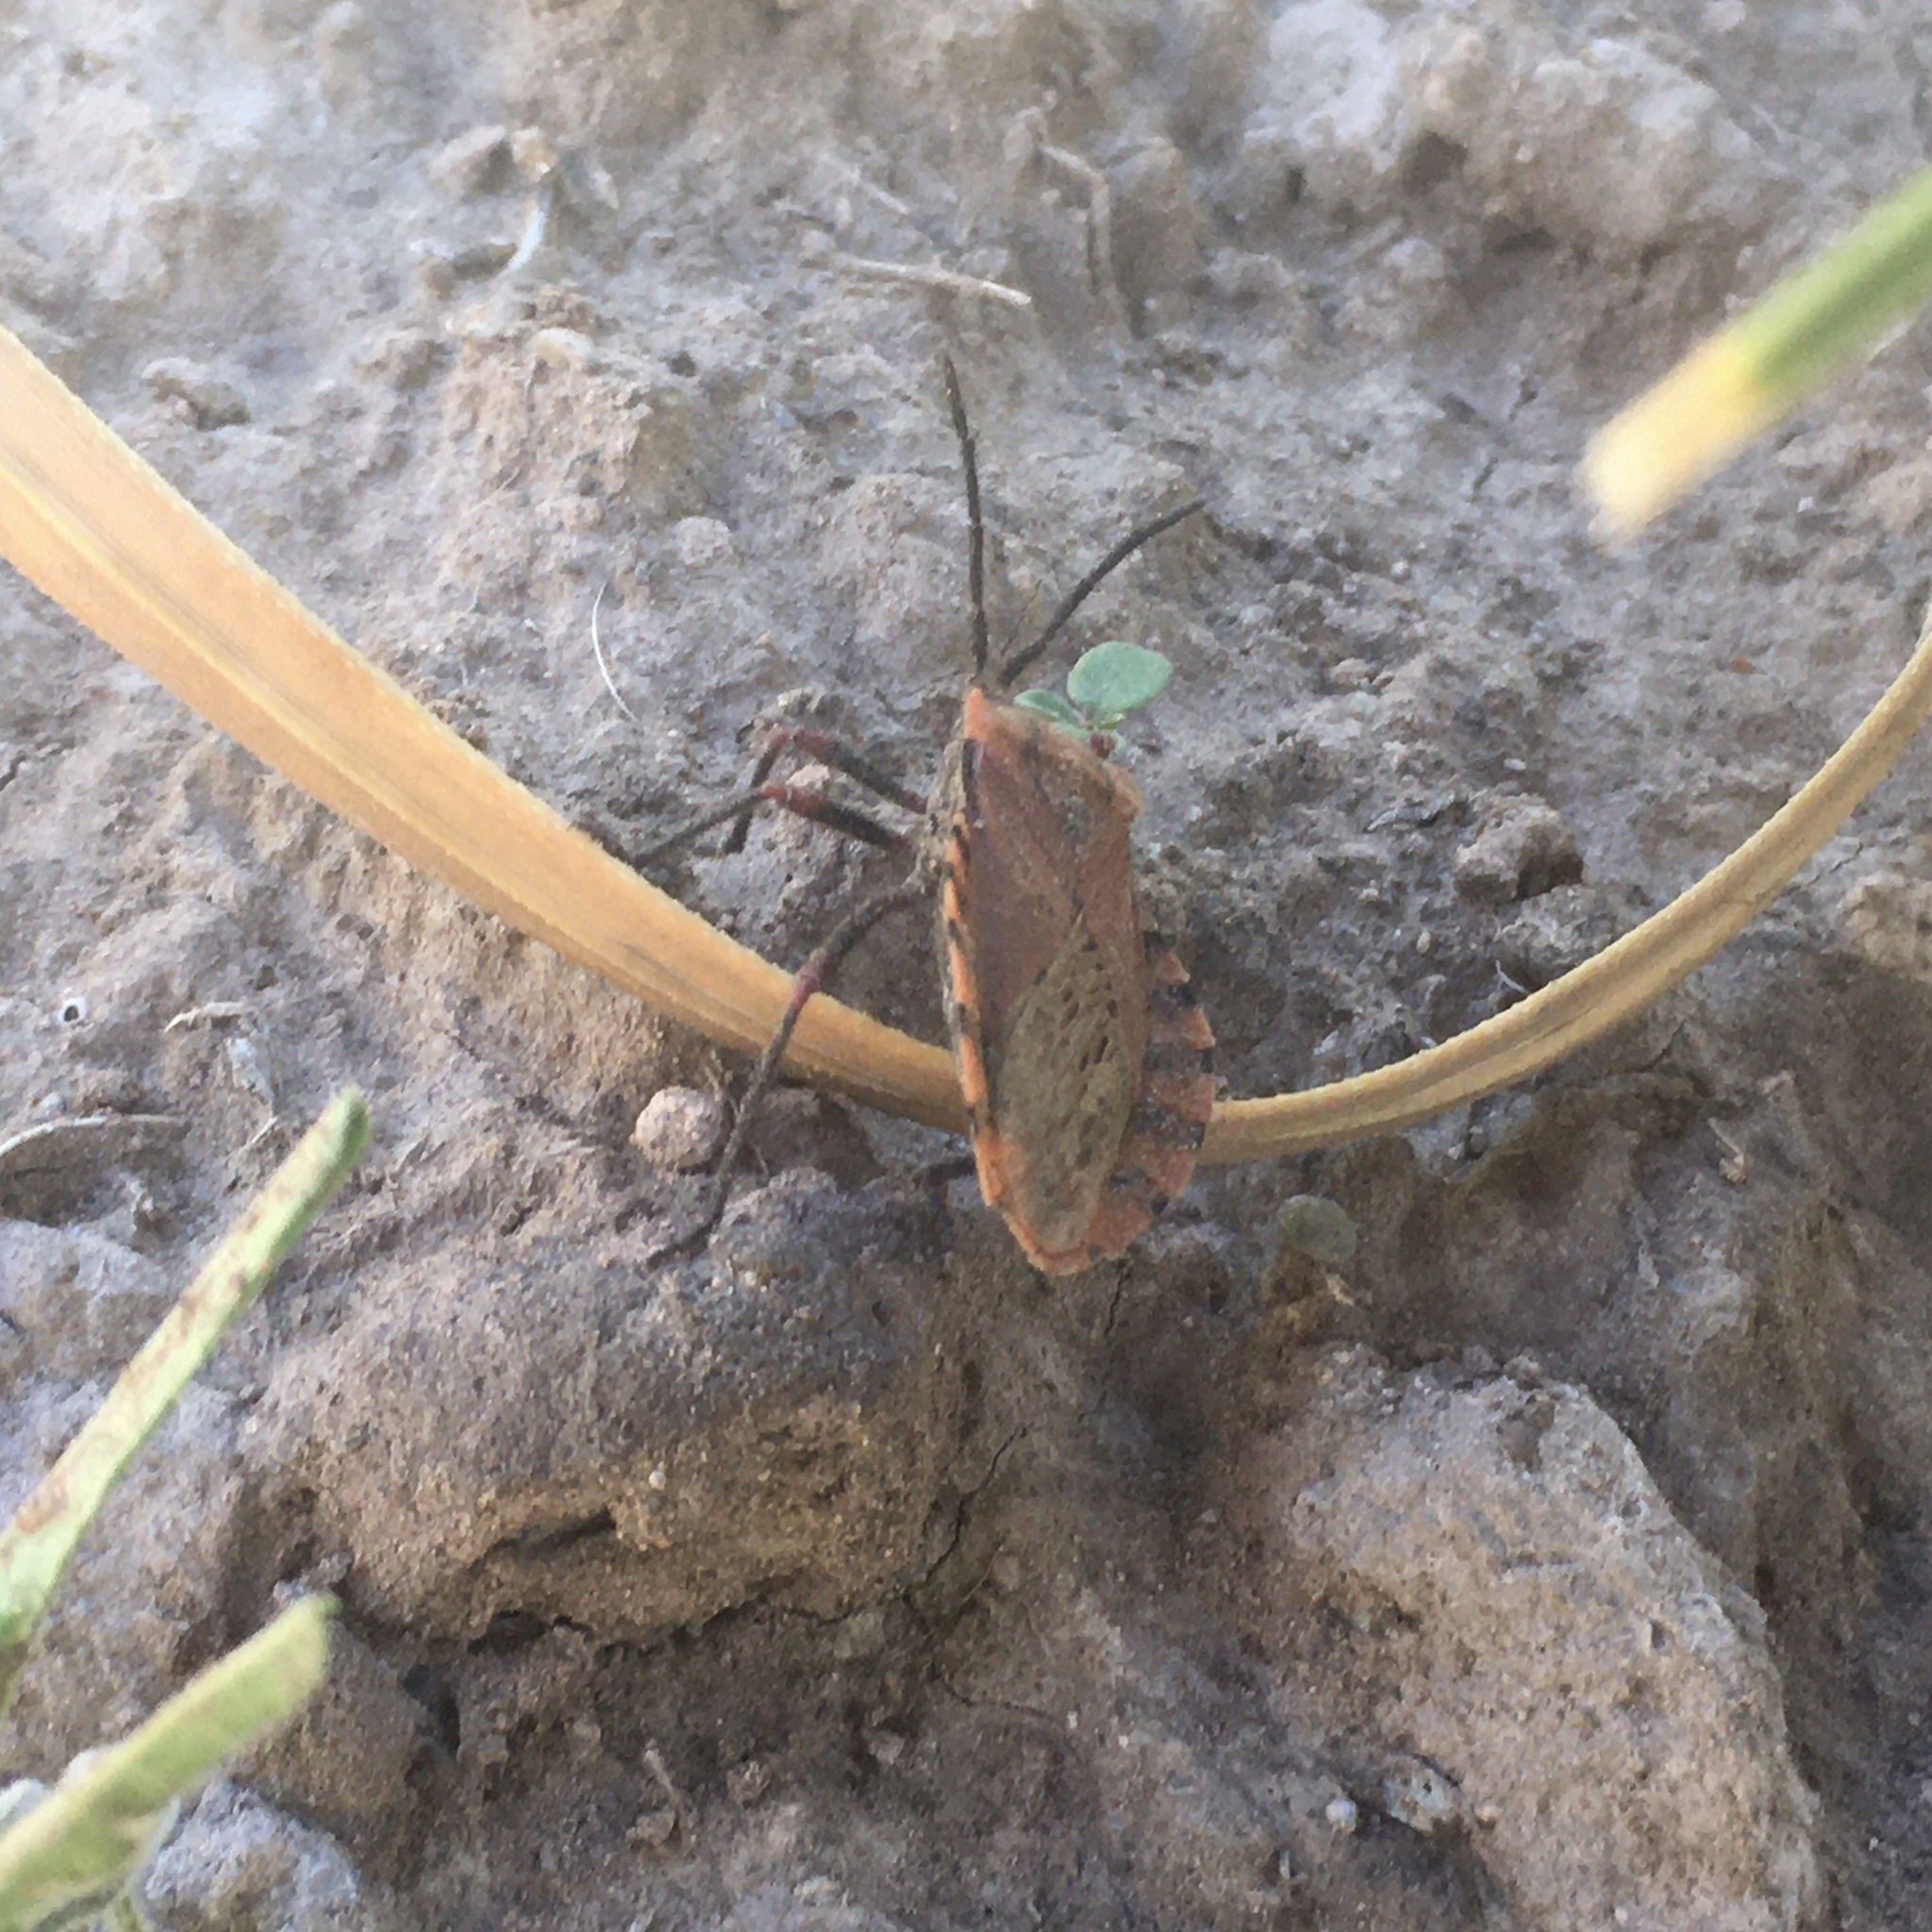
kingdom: Animalia
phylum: Arthropoda
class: Insecta
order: Hemiptera
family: Coreidae
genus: Spartocera
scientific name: Spartocera fusca
